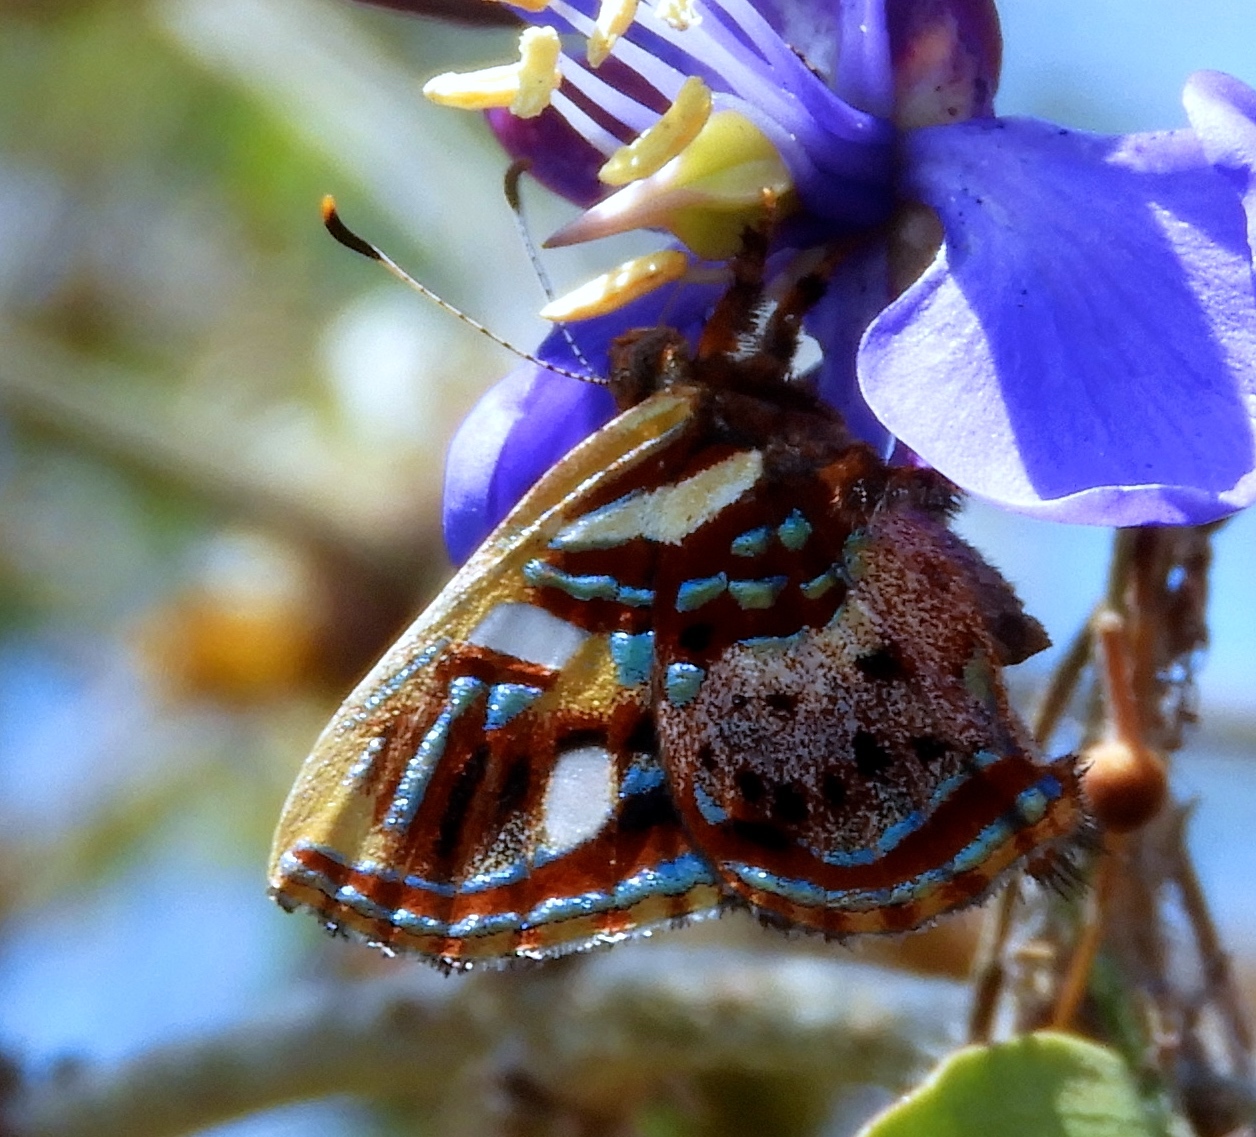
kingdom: Animalia
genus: Anteros
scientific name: Anteros carausius
